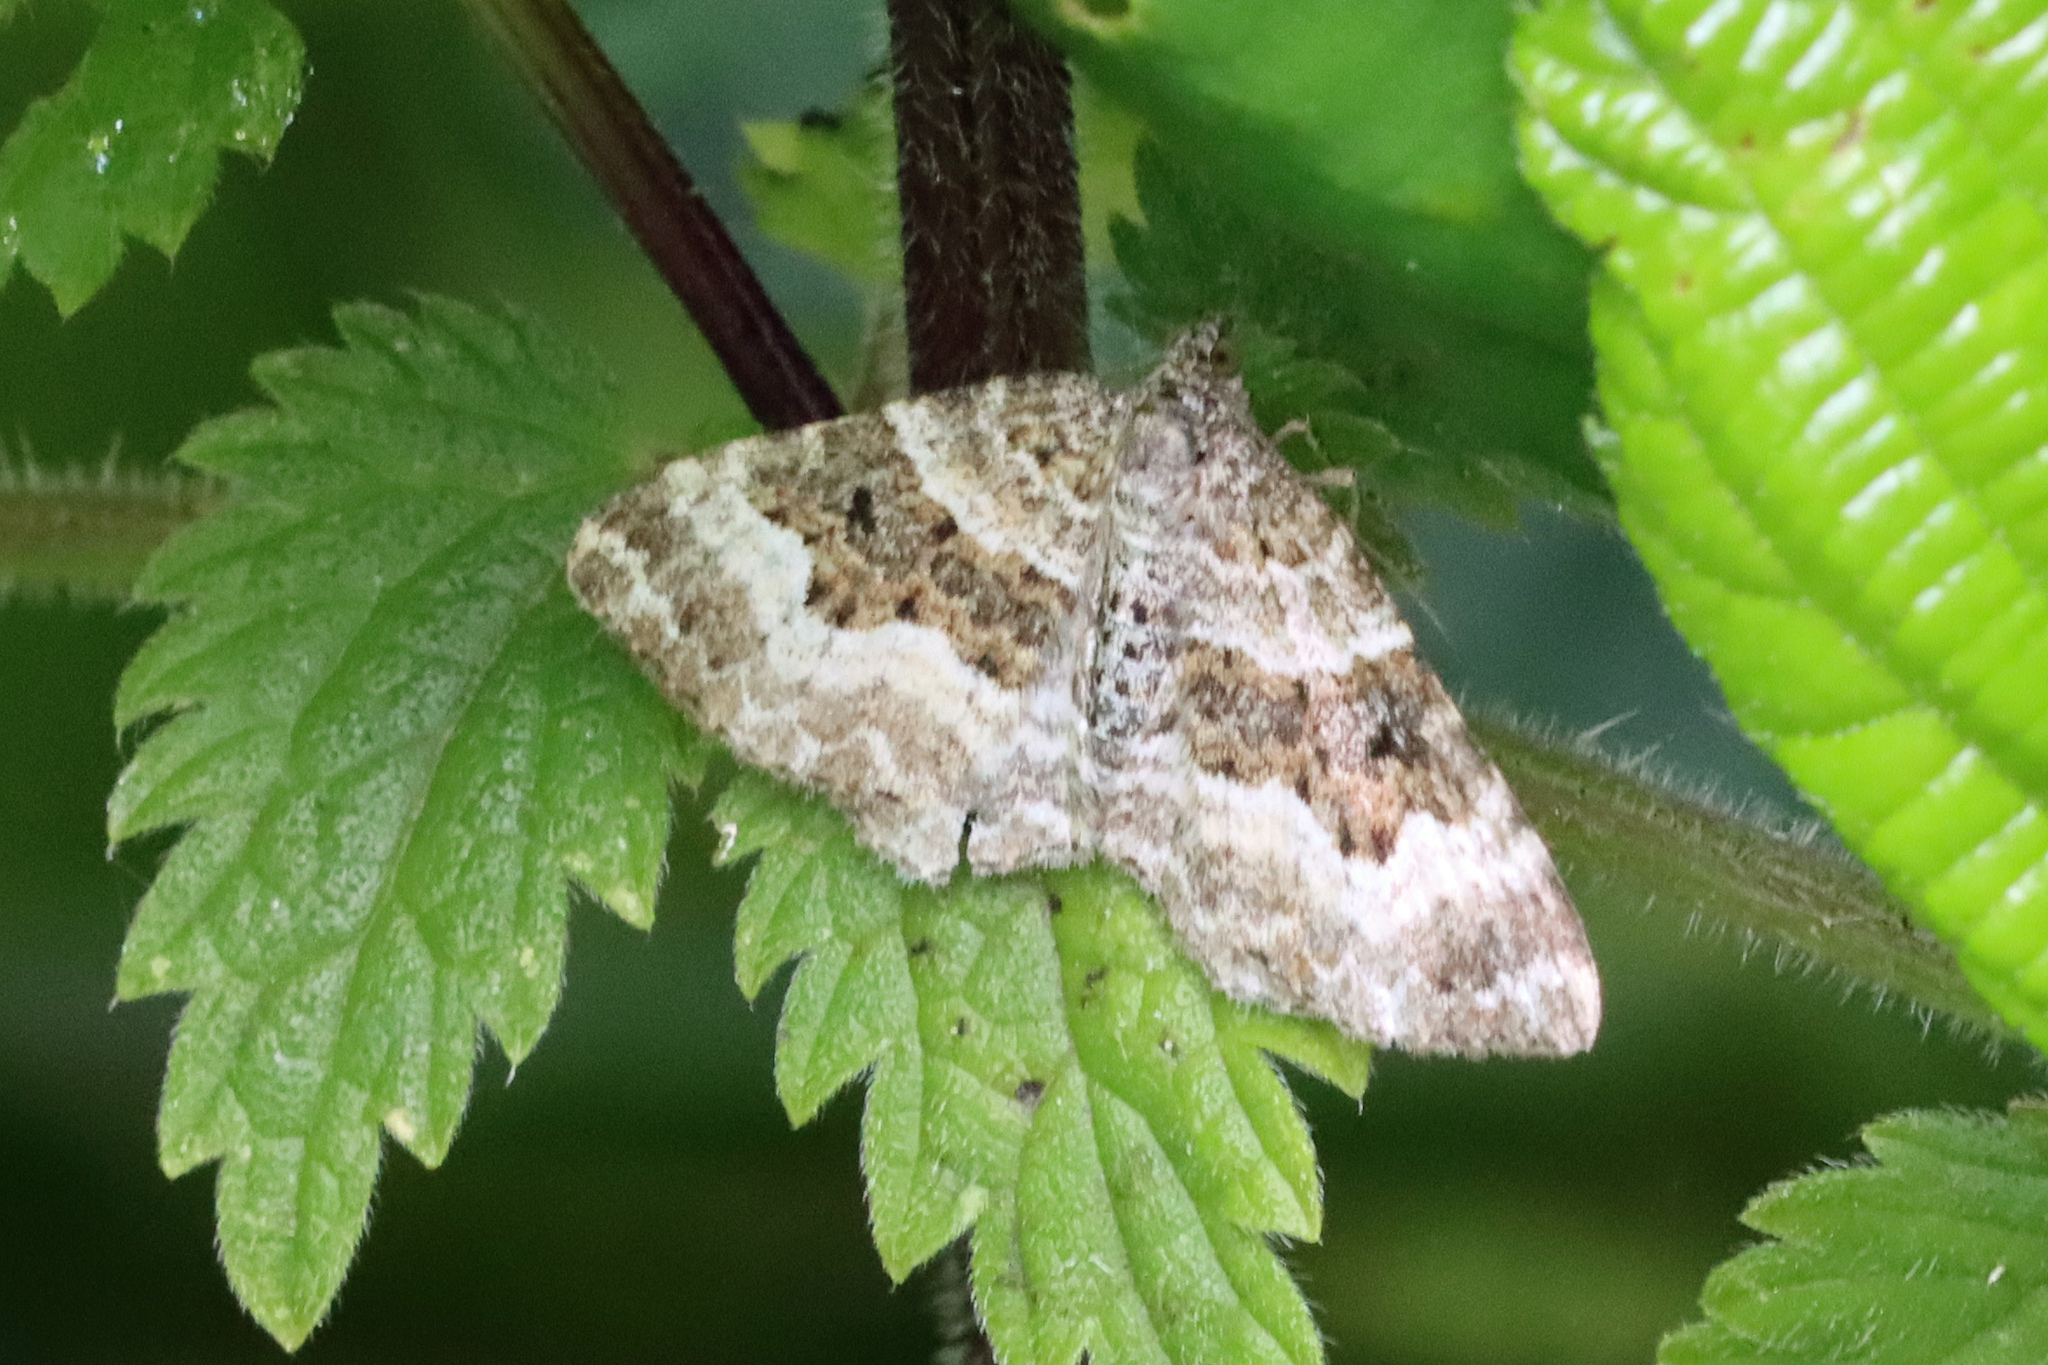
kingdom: Animalia
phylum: Arthropoda
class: Insecta
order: Lepidoptera
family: Geometridae
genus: Epirrhoe
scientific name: Epirrhoe alternata
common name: Common carpet
